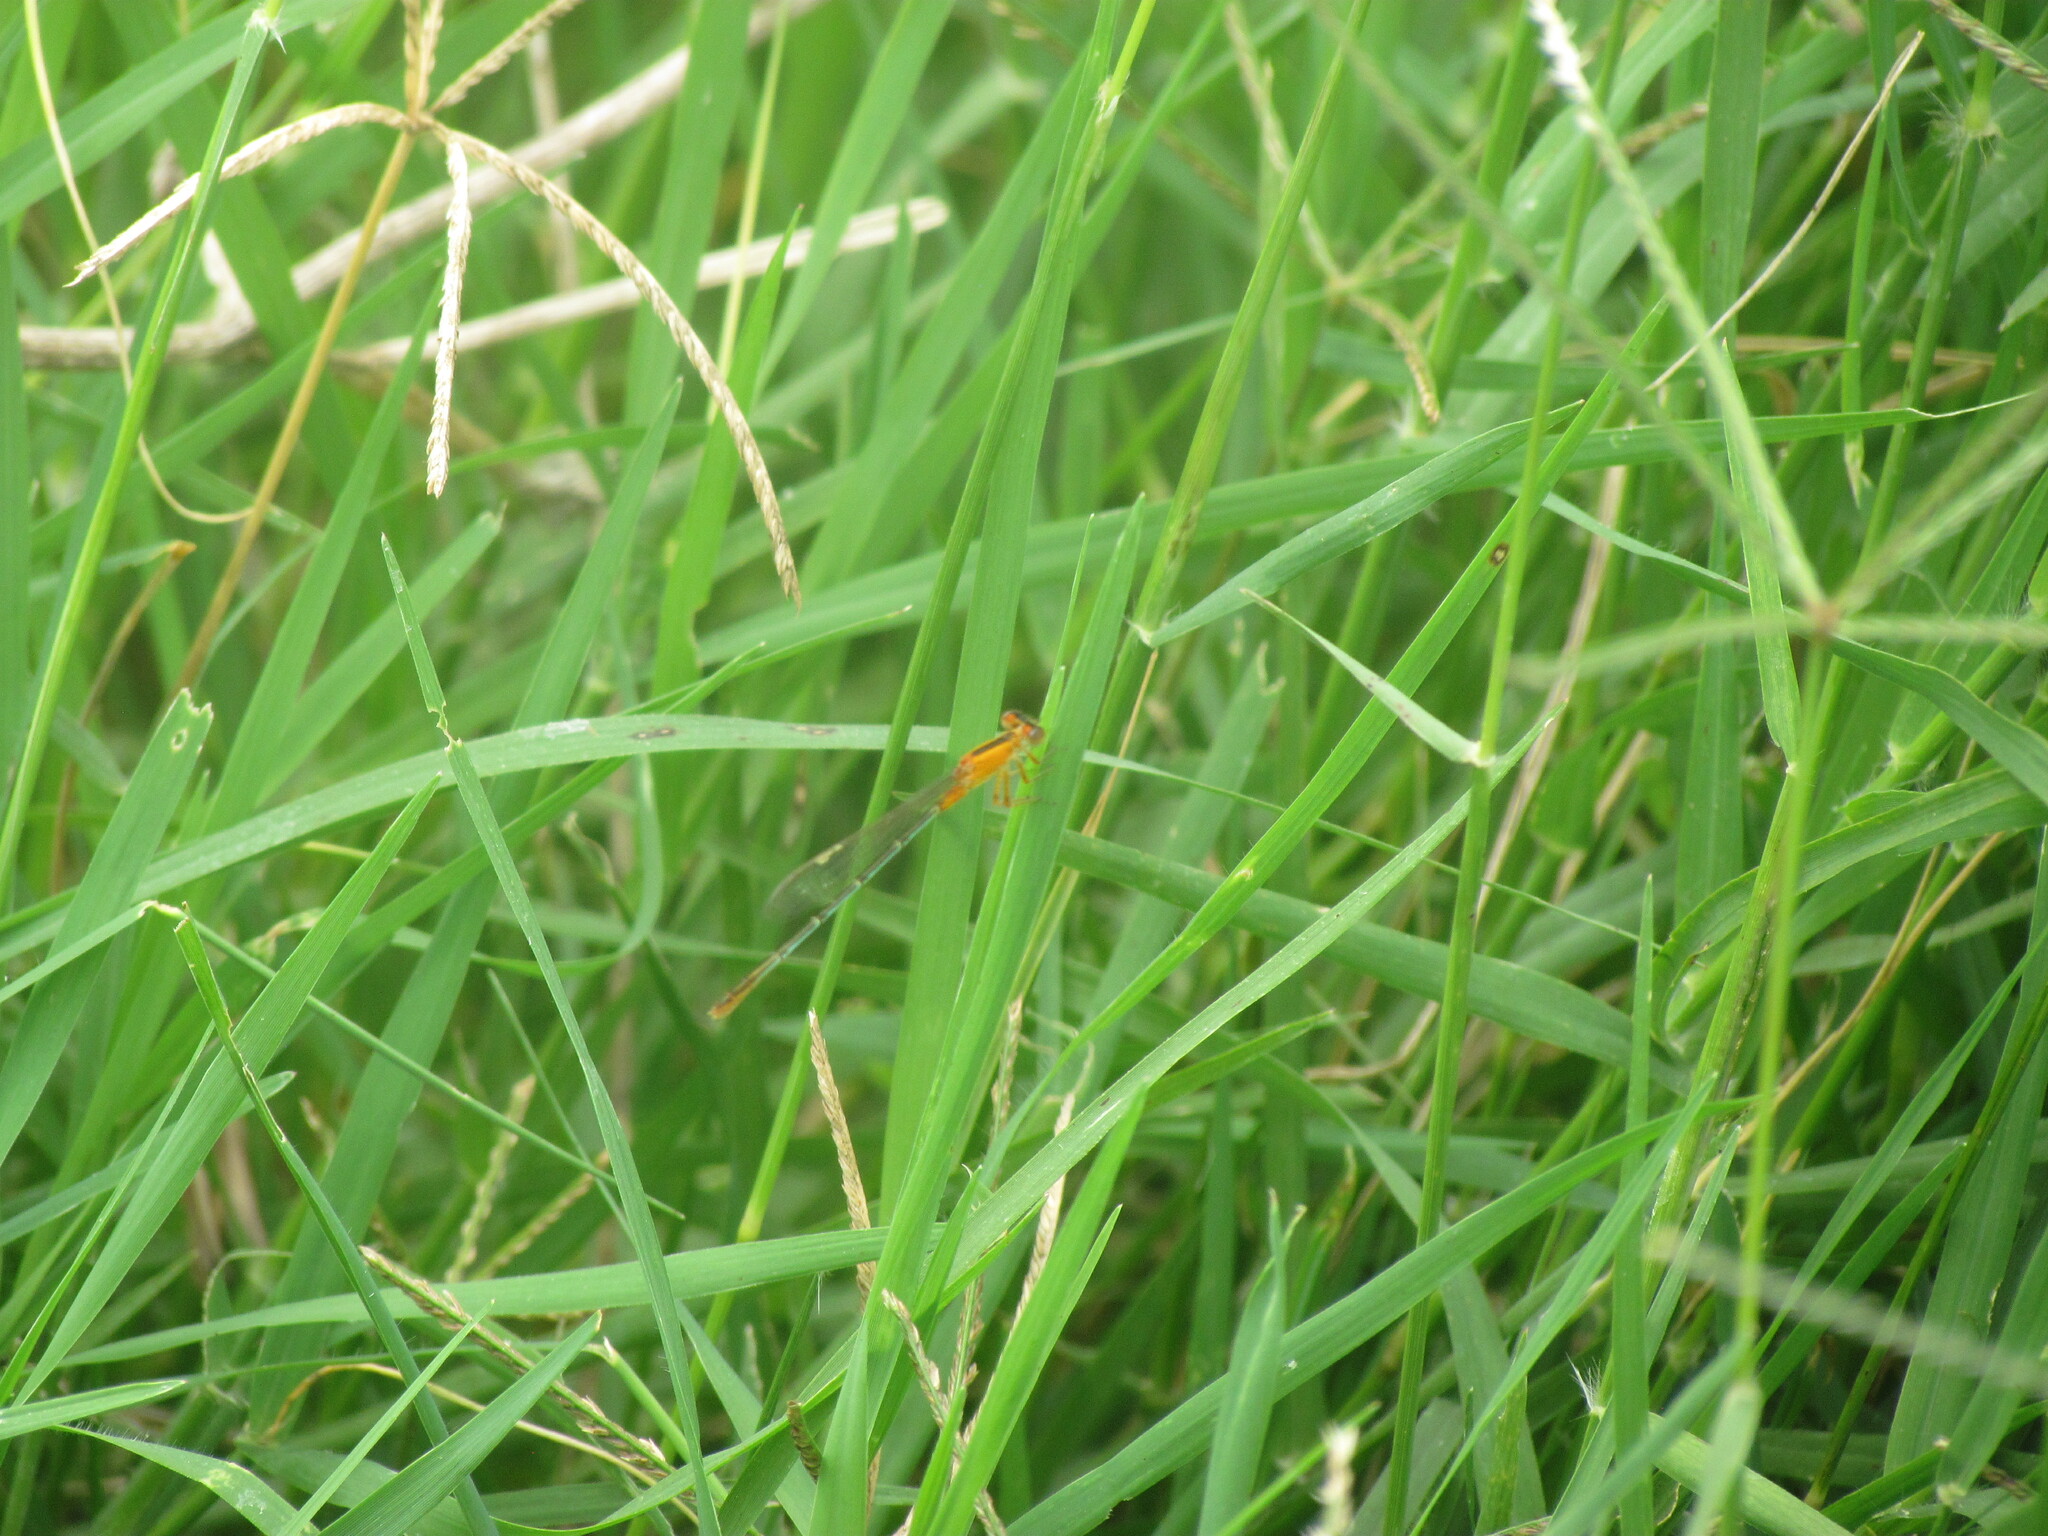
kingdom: Animalia
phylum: Arthropoda
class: Insecta
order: Odonata
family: Coenagrionidae
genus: Ischnura
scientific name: Ischnura fluviatilis
